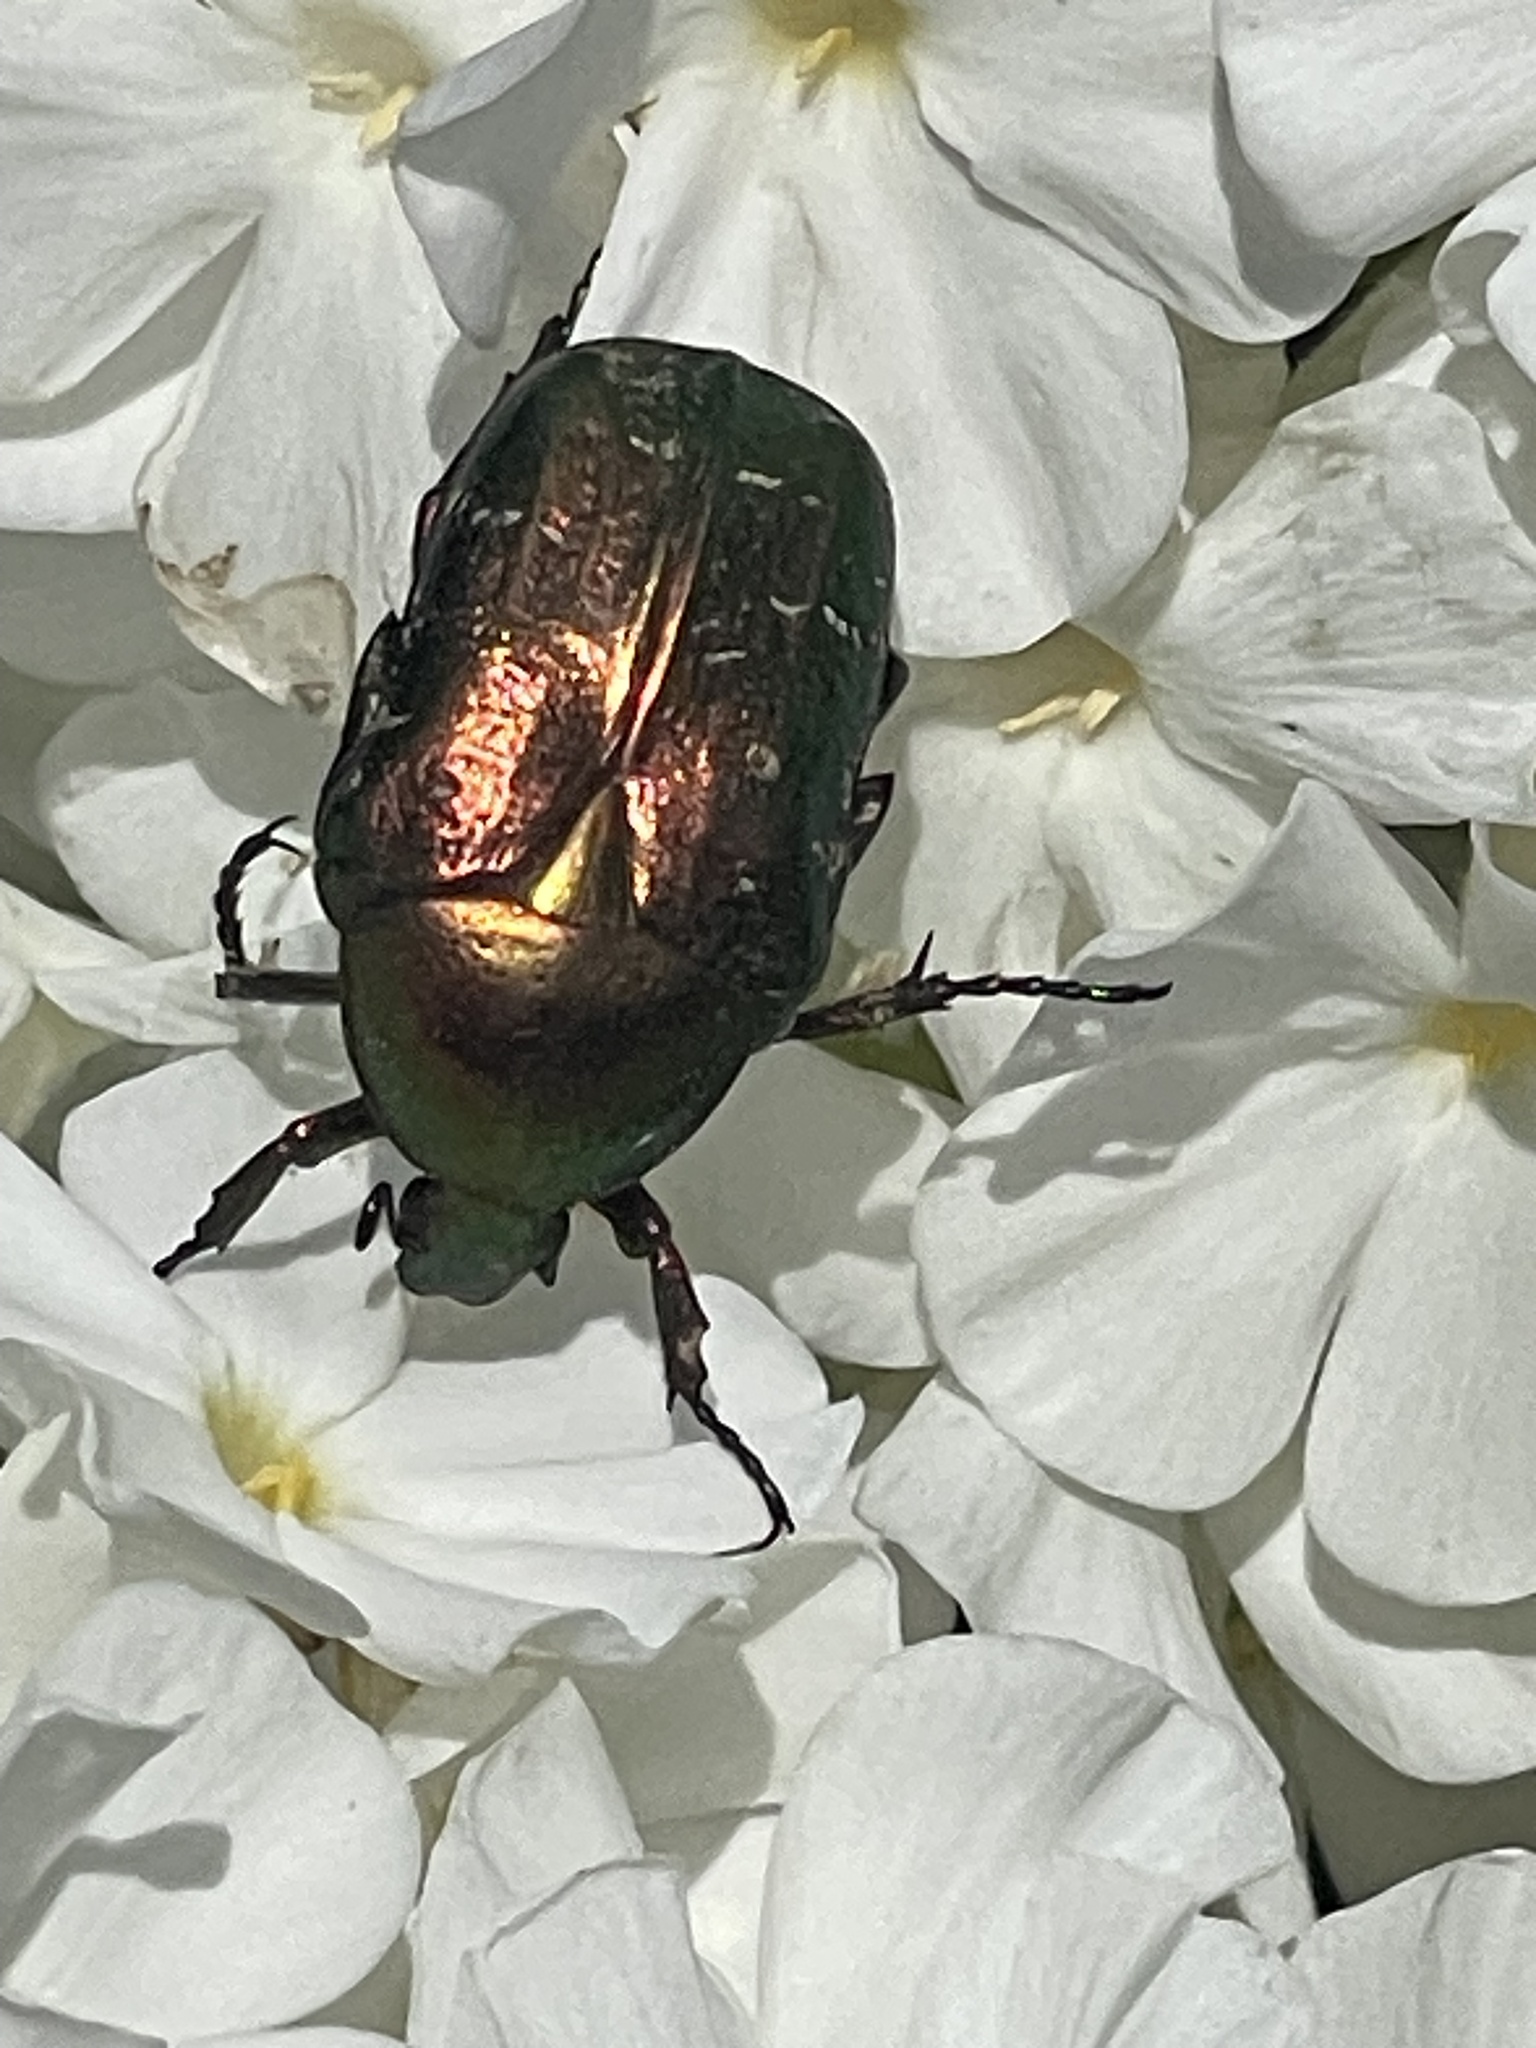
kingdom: Animalia
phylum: Arthropoda
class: Insecta
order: Coleoptera
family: Scarabaeidae
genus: Cetonia
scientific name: Cetonia aurata
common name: Rose chafer
